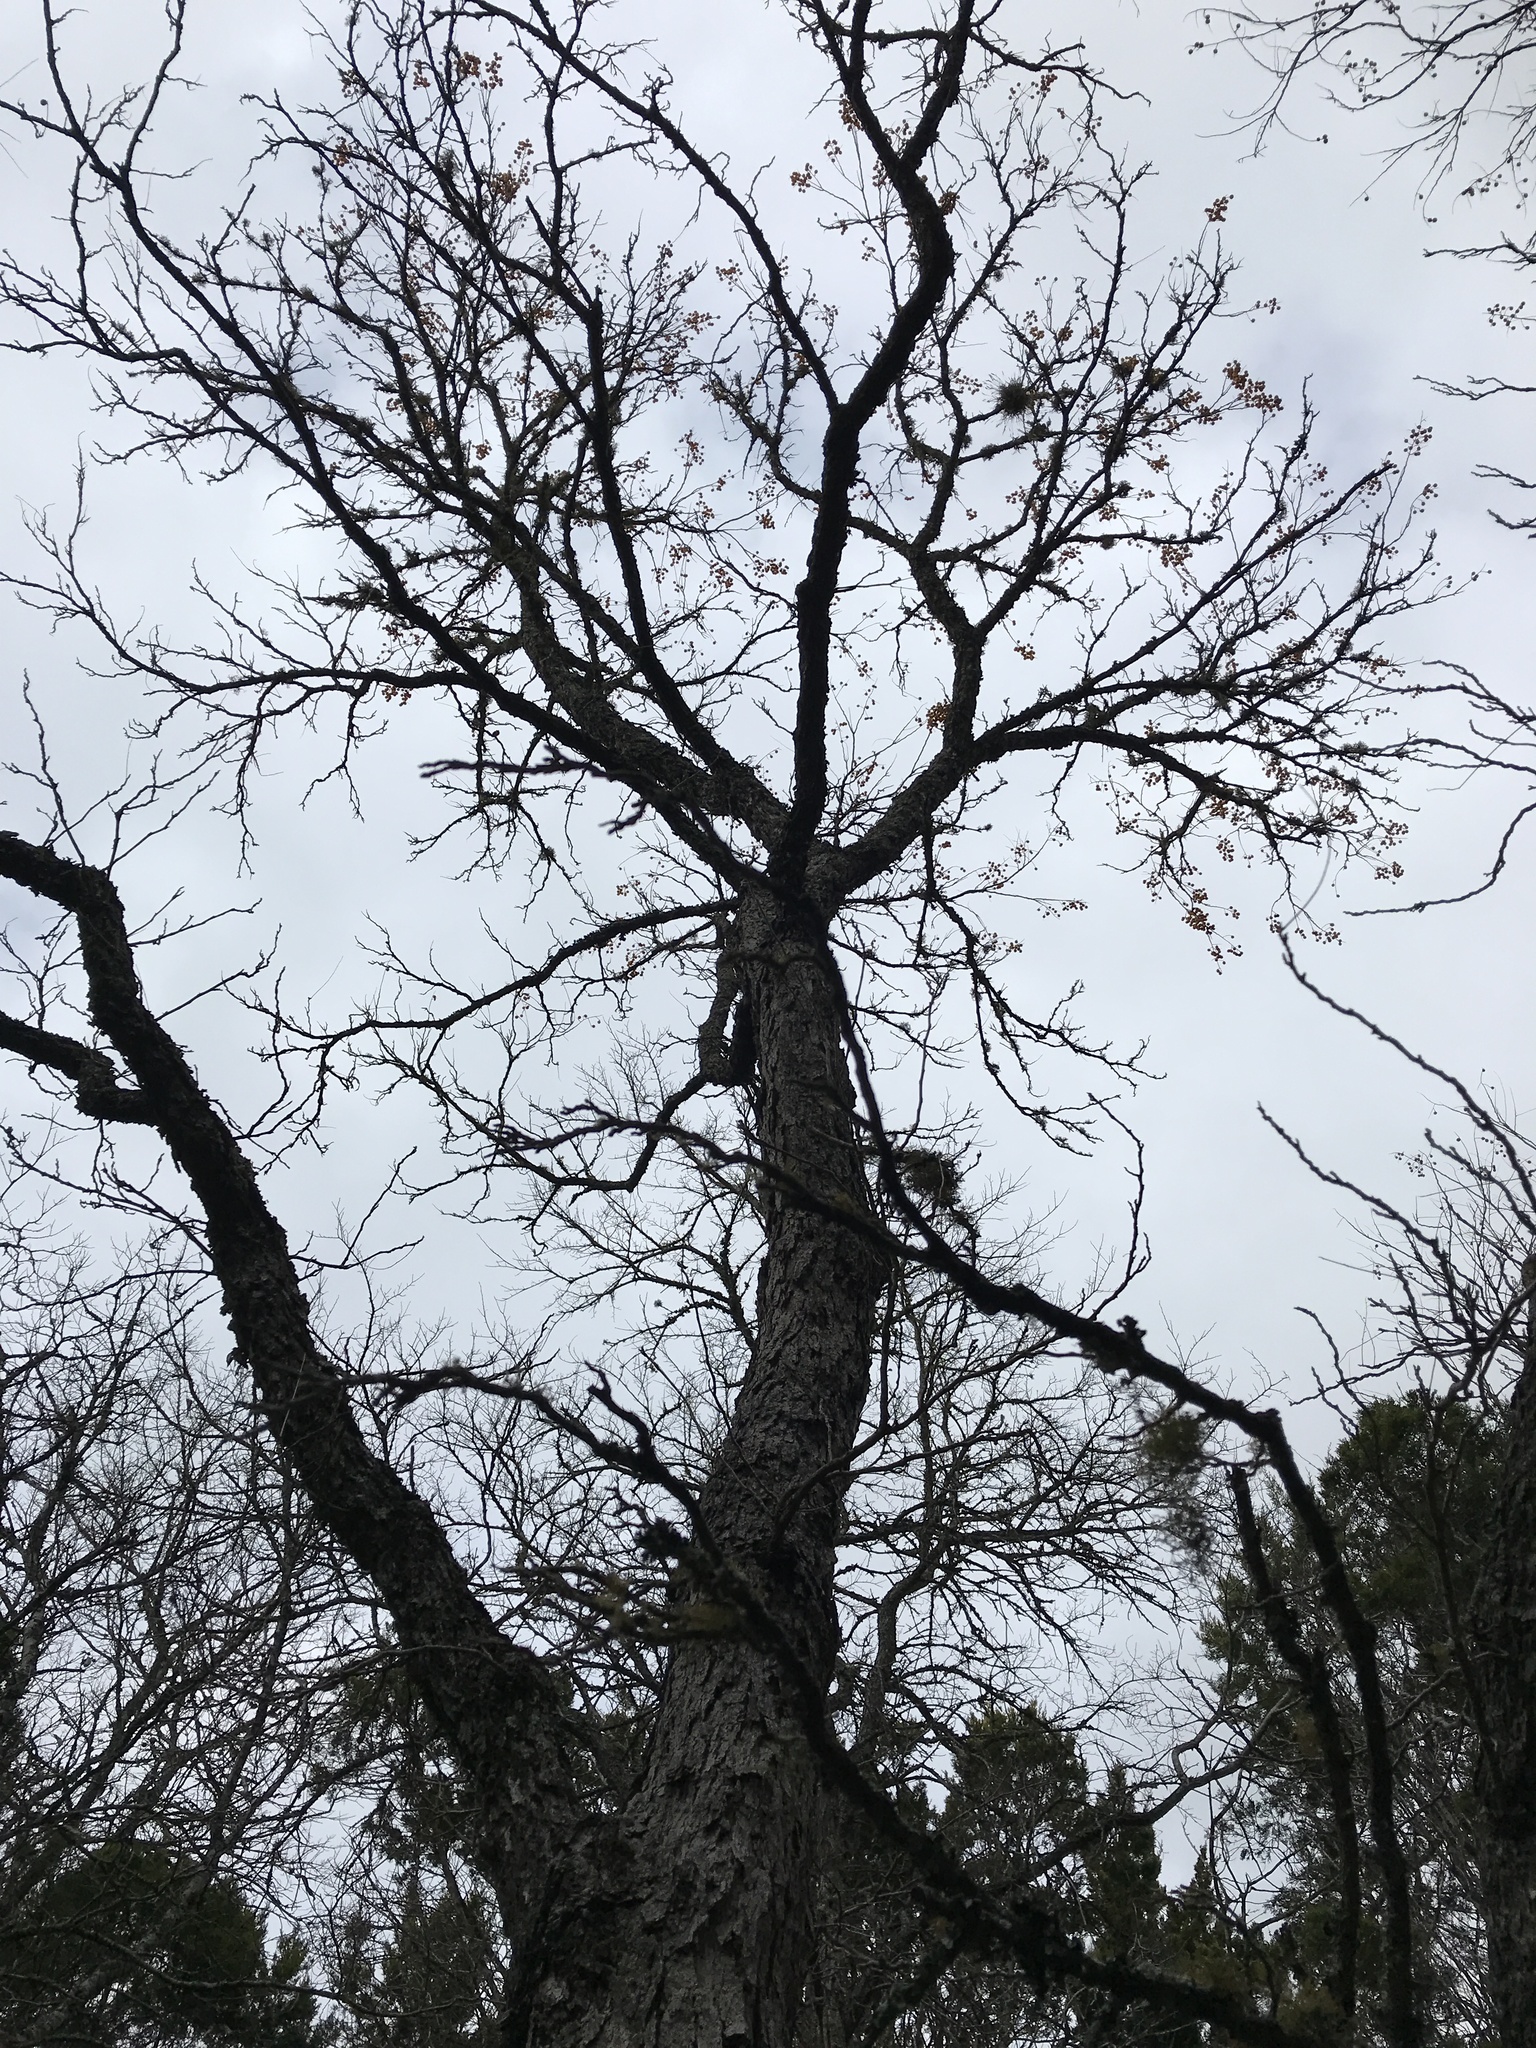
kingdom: Plantae
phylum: Tracheophyta
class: Magnoliopsida
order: Sapindales
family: Sapindaceae
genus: Sapindus
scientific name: Sapindus drummondii
